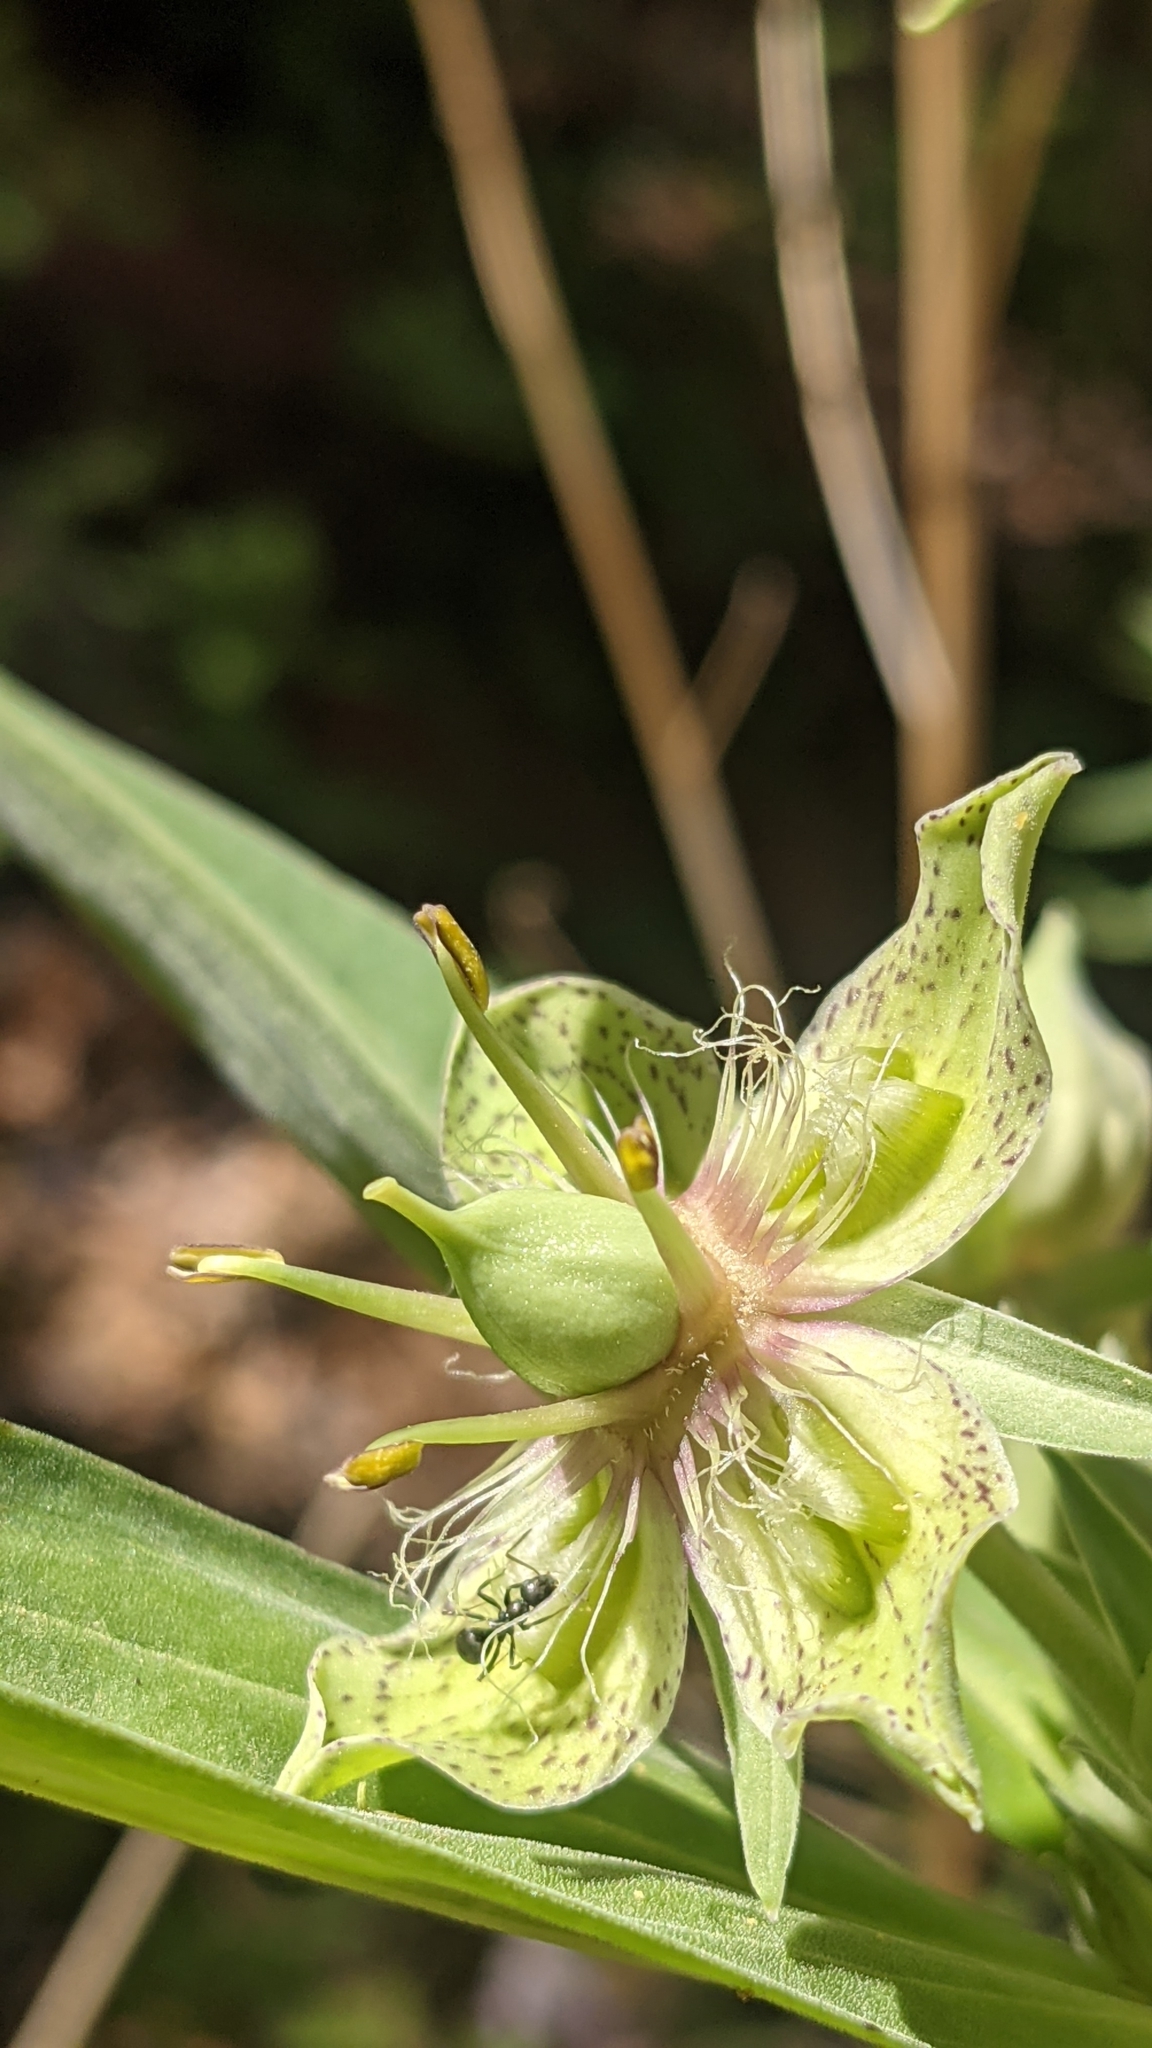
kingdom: Plantae
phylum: Tracheophyta
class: Magnoliopsida
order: Gentianales
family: Gentianaceae
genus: Frasera
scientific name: Frasera speciosa
